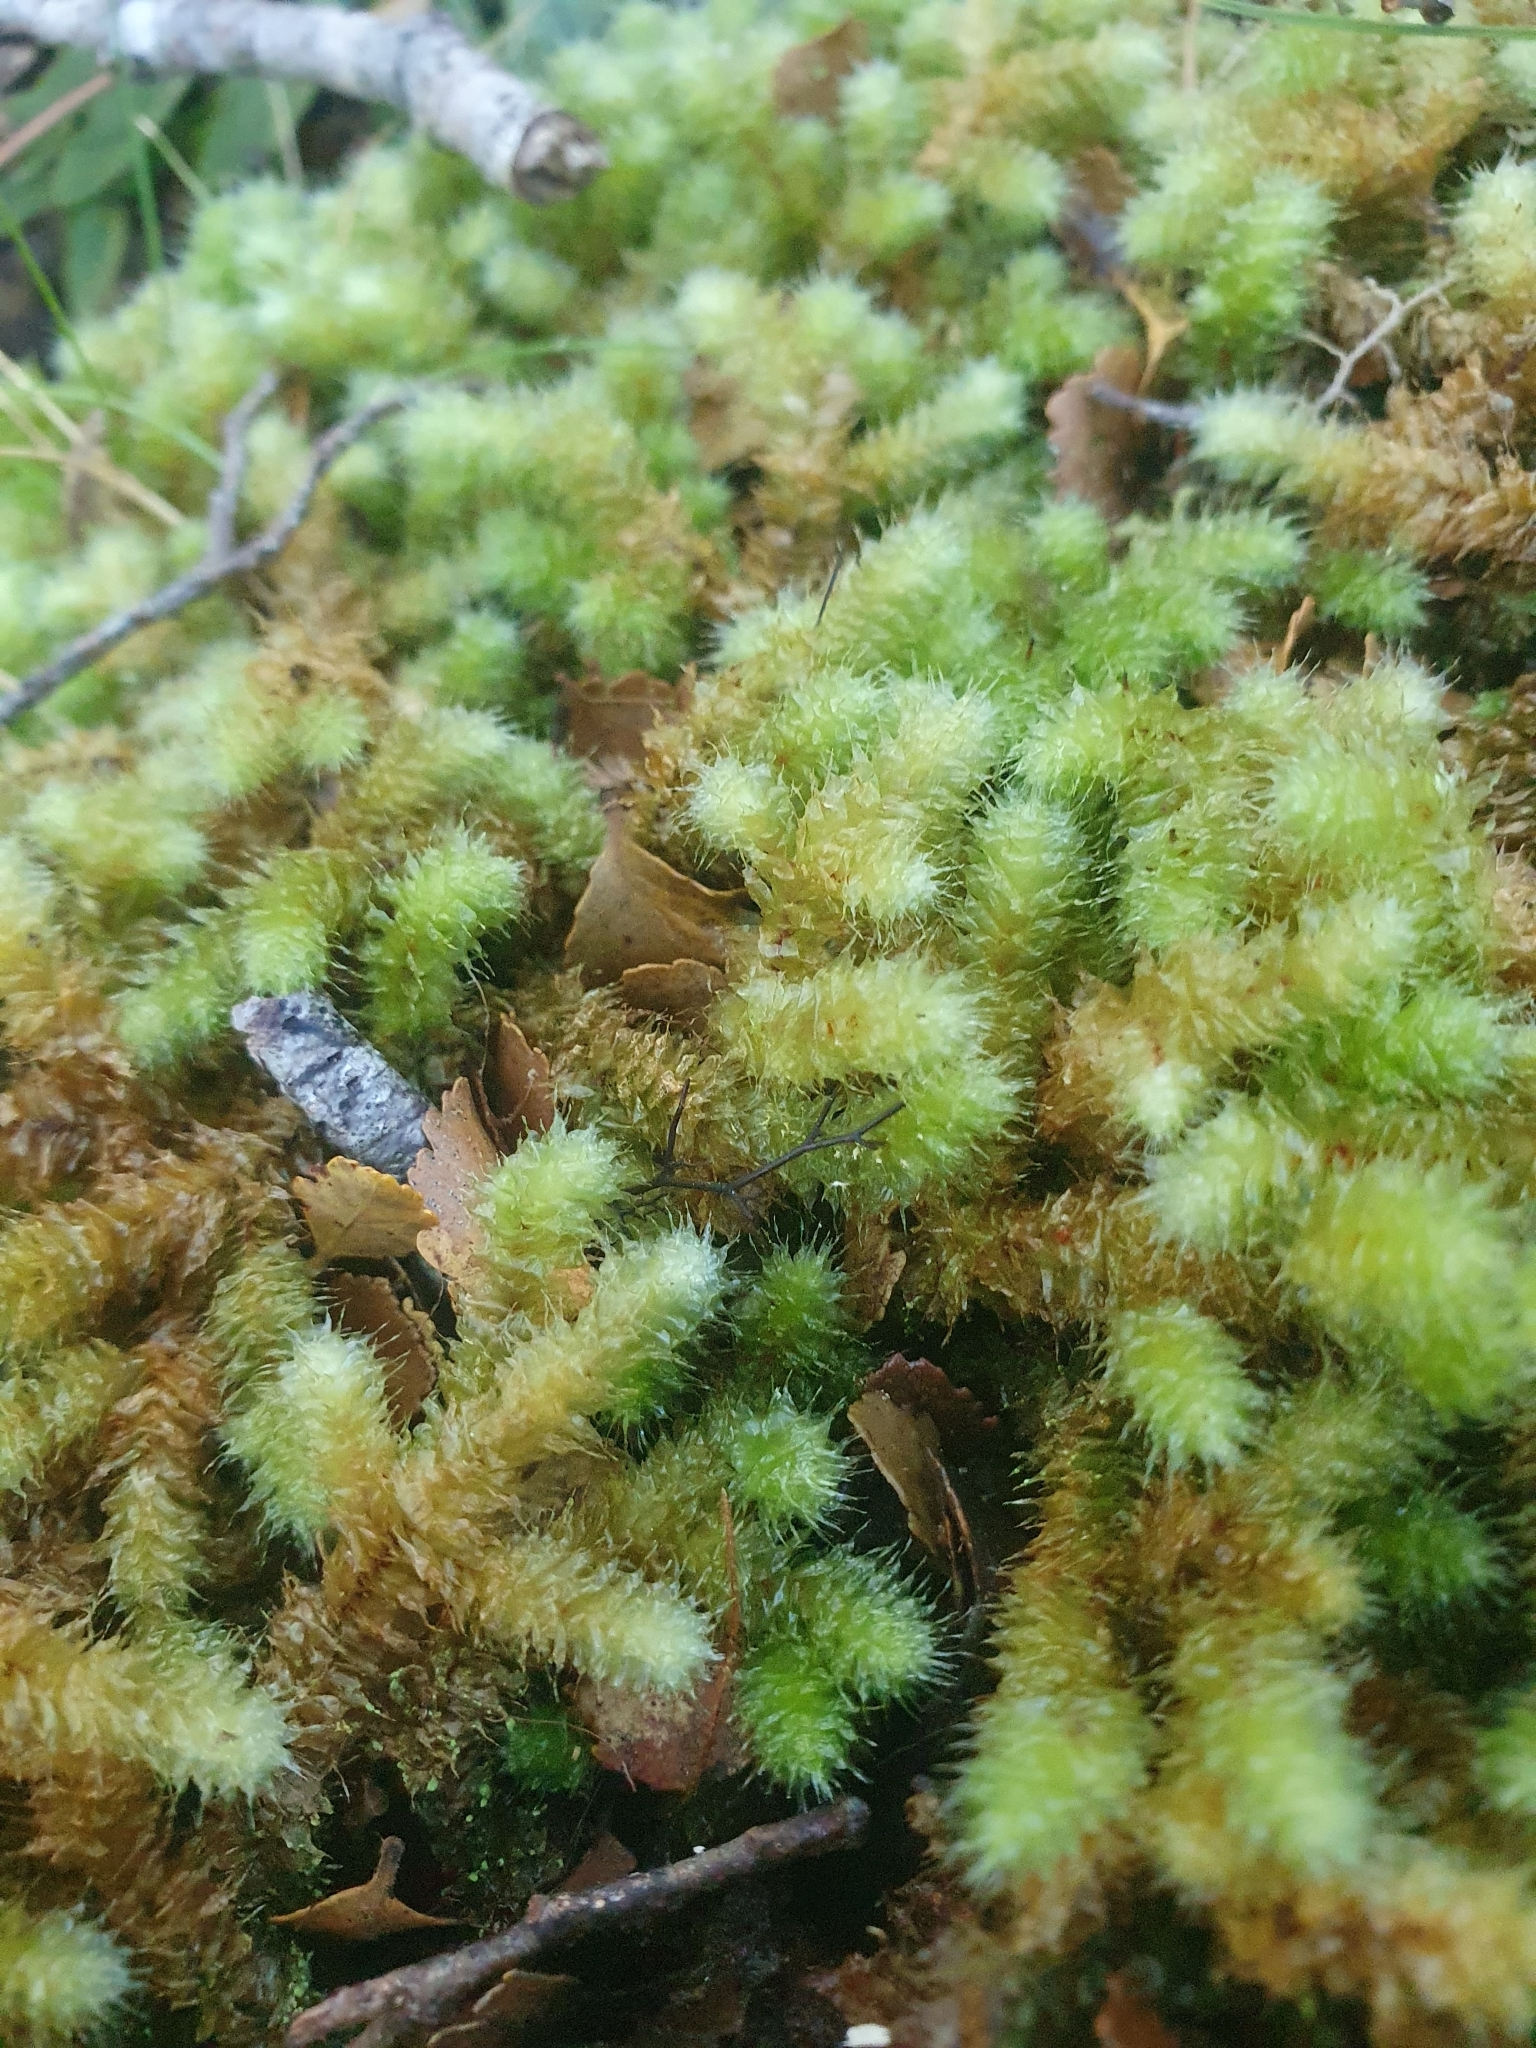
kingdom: Plantae
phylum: Bryophyta
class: Bryopsida
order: Ptychomniales
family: Ptychomniaceae
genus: Ptychomnion
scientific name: Ptychomnion aciculare
